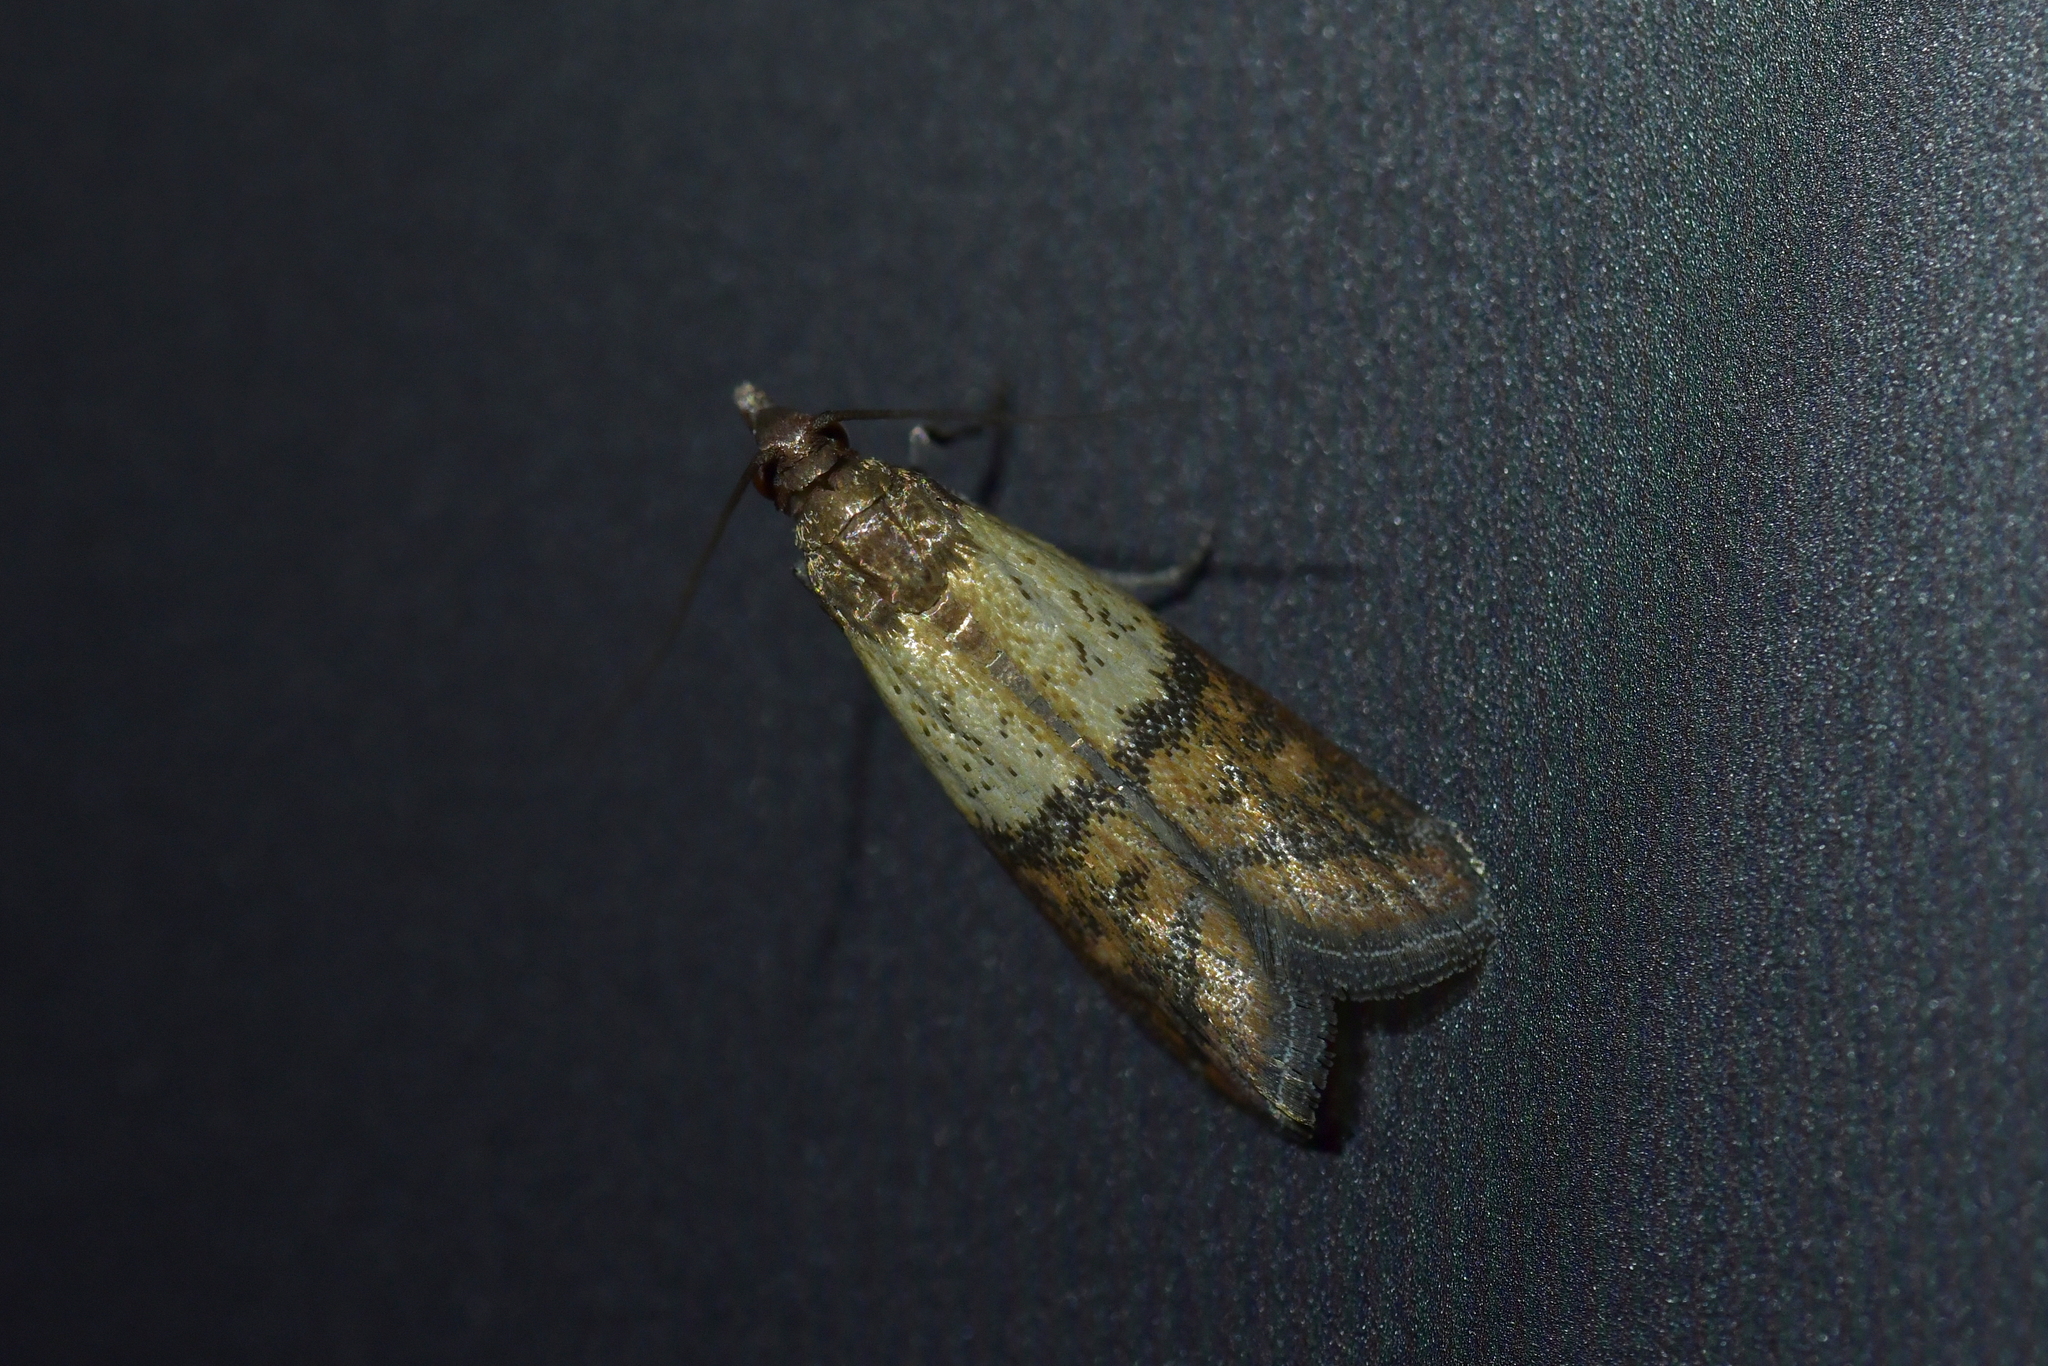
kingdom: Animalia
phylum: Arthropoda
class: Insecta
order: Lepidoptera
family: Pyralidae
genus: Plodia
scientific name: Plodia interpunctella
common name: Indian meal moth
